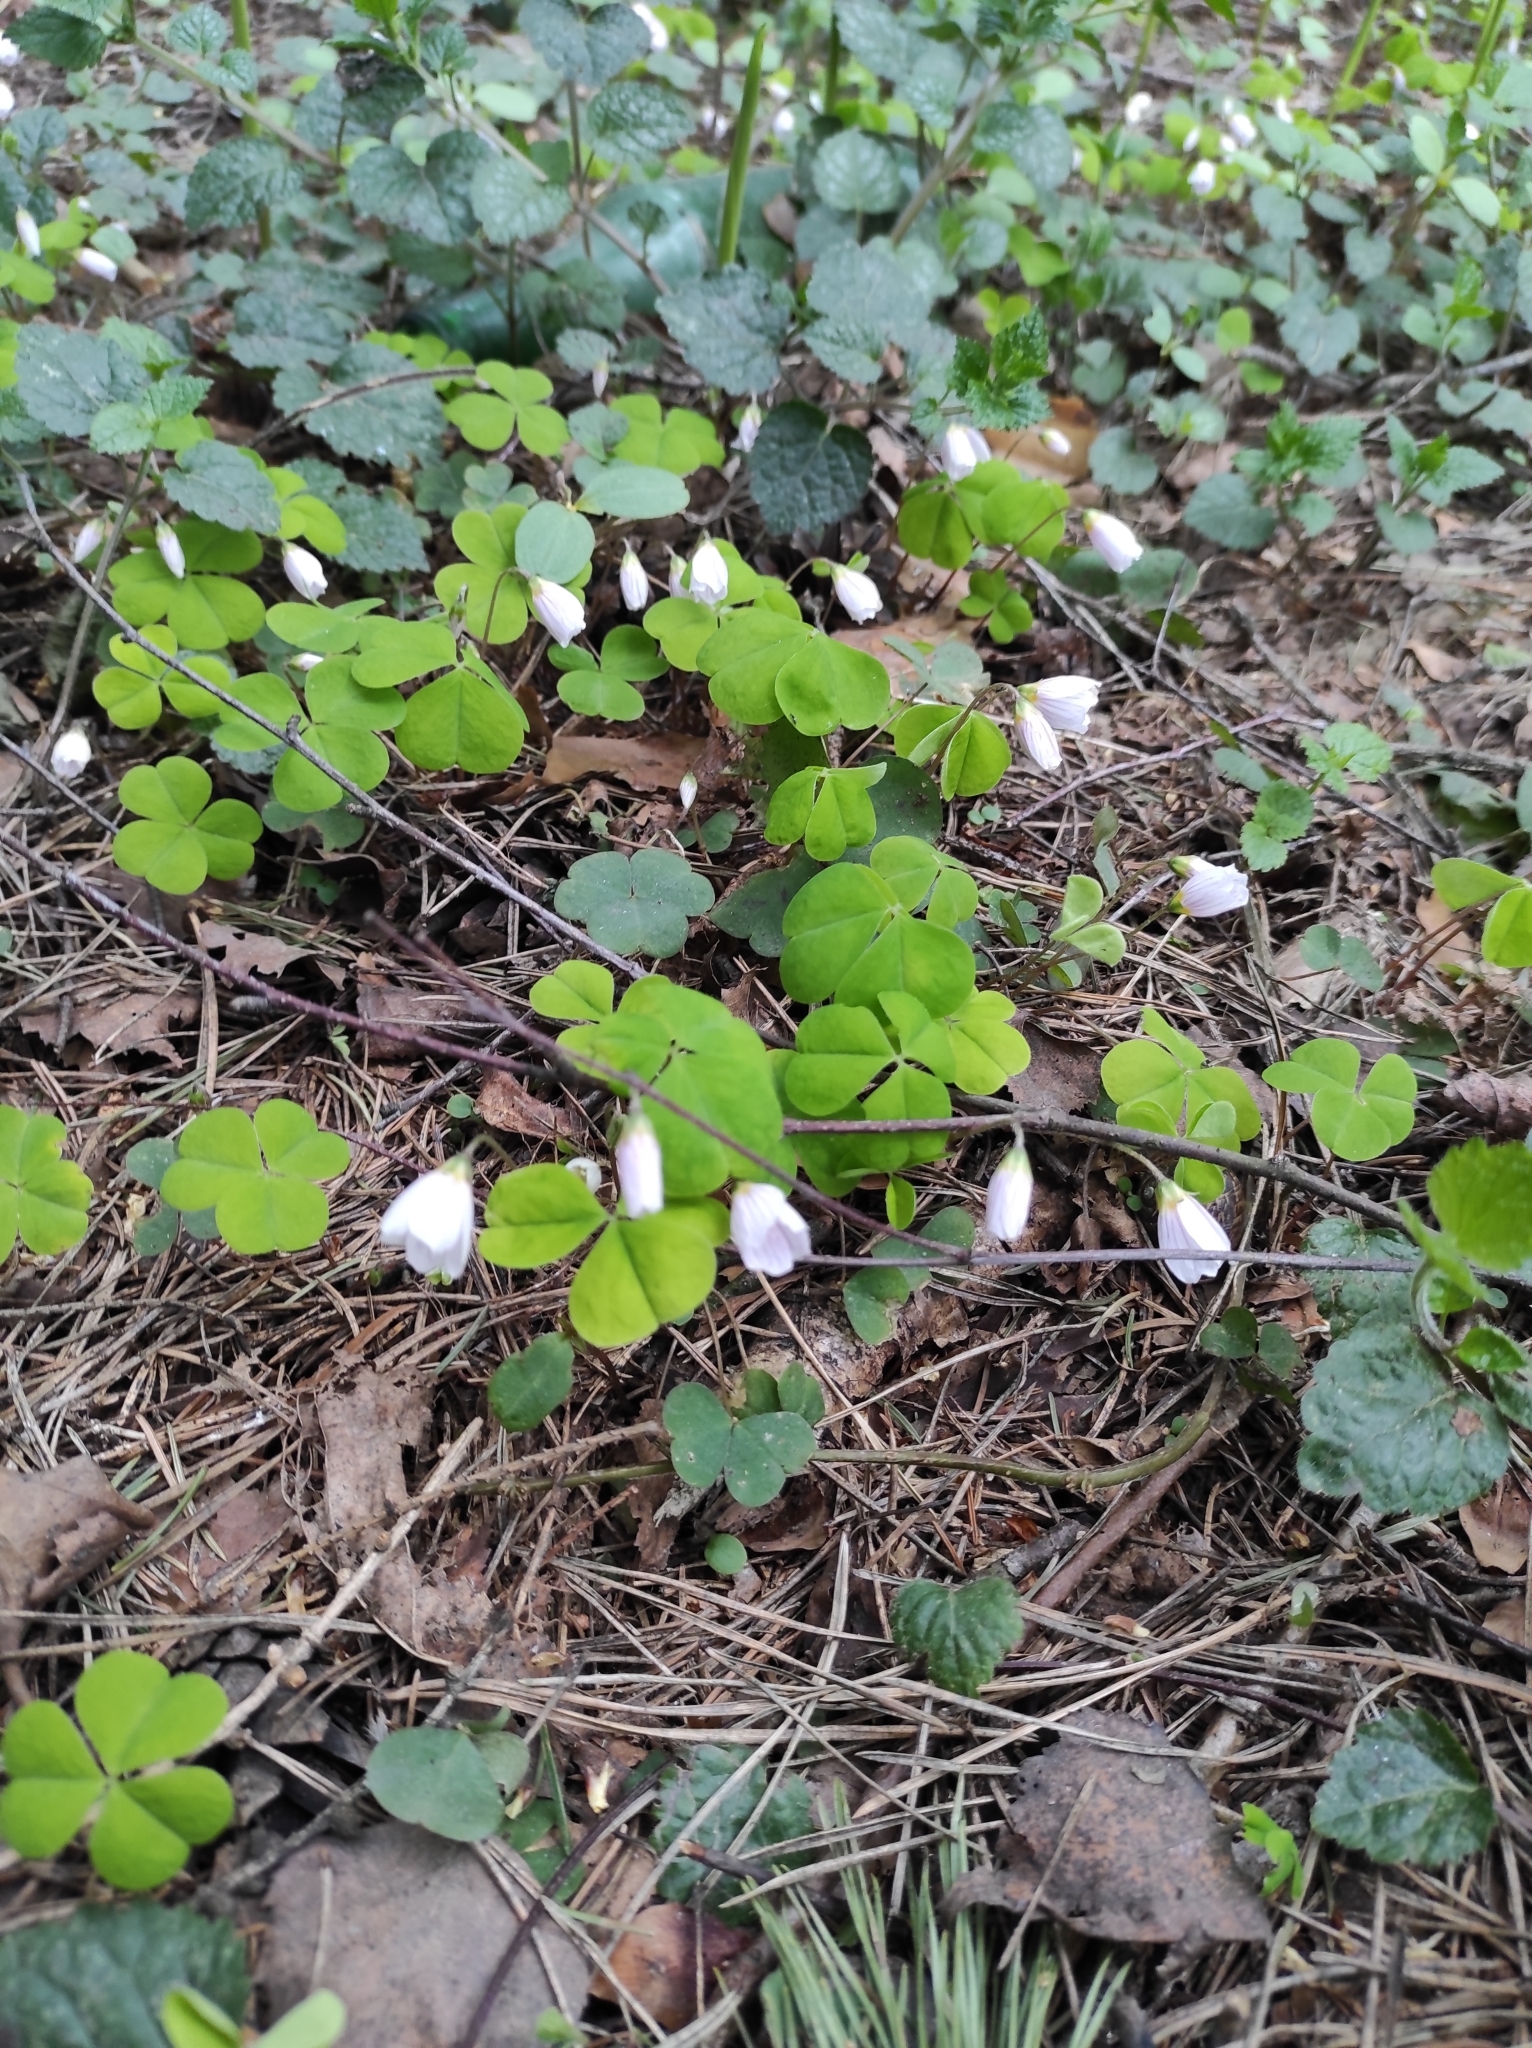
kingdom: Plantae
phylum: Tracheophyta
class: Magnoliopsida
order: Oxalidales
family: Oxalidaceae
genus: Oxalis
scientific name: Oxalis acetosella
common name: Wood-sorrel
